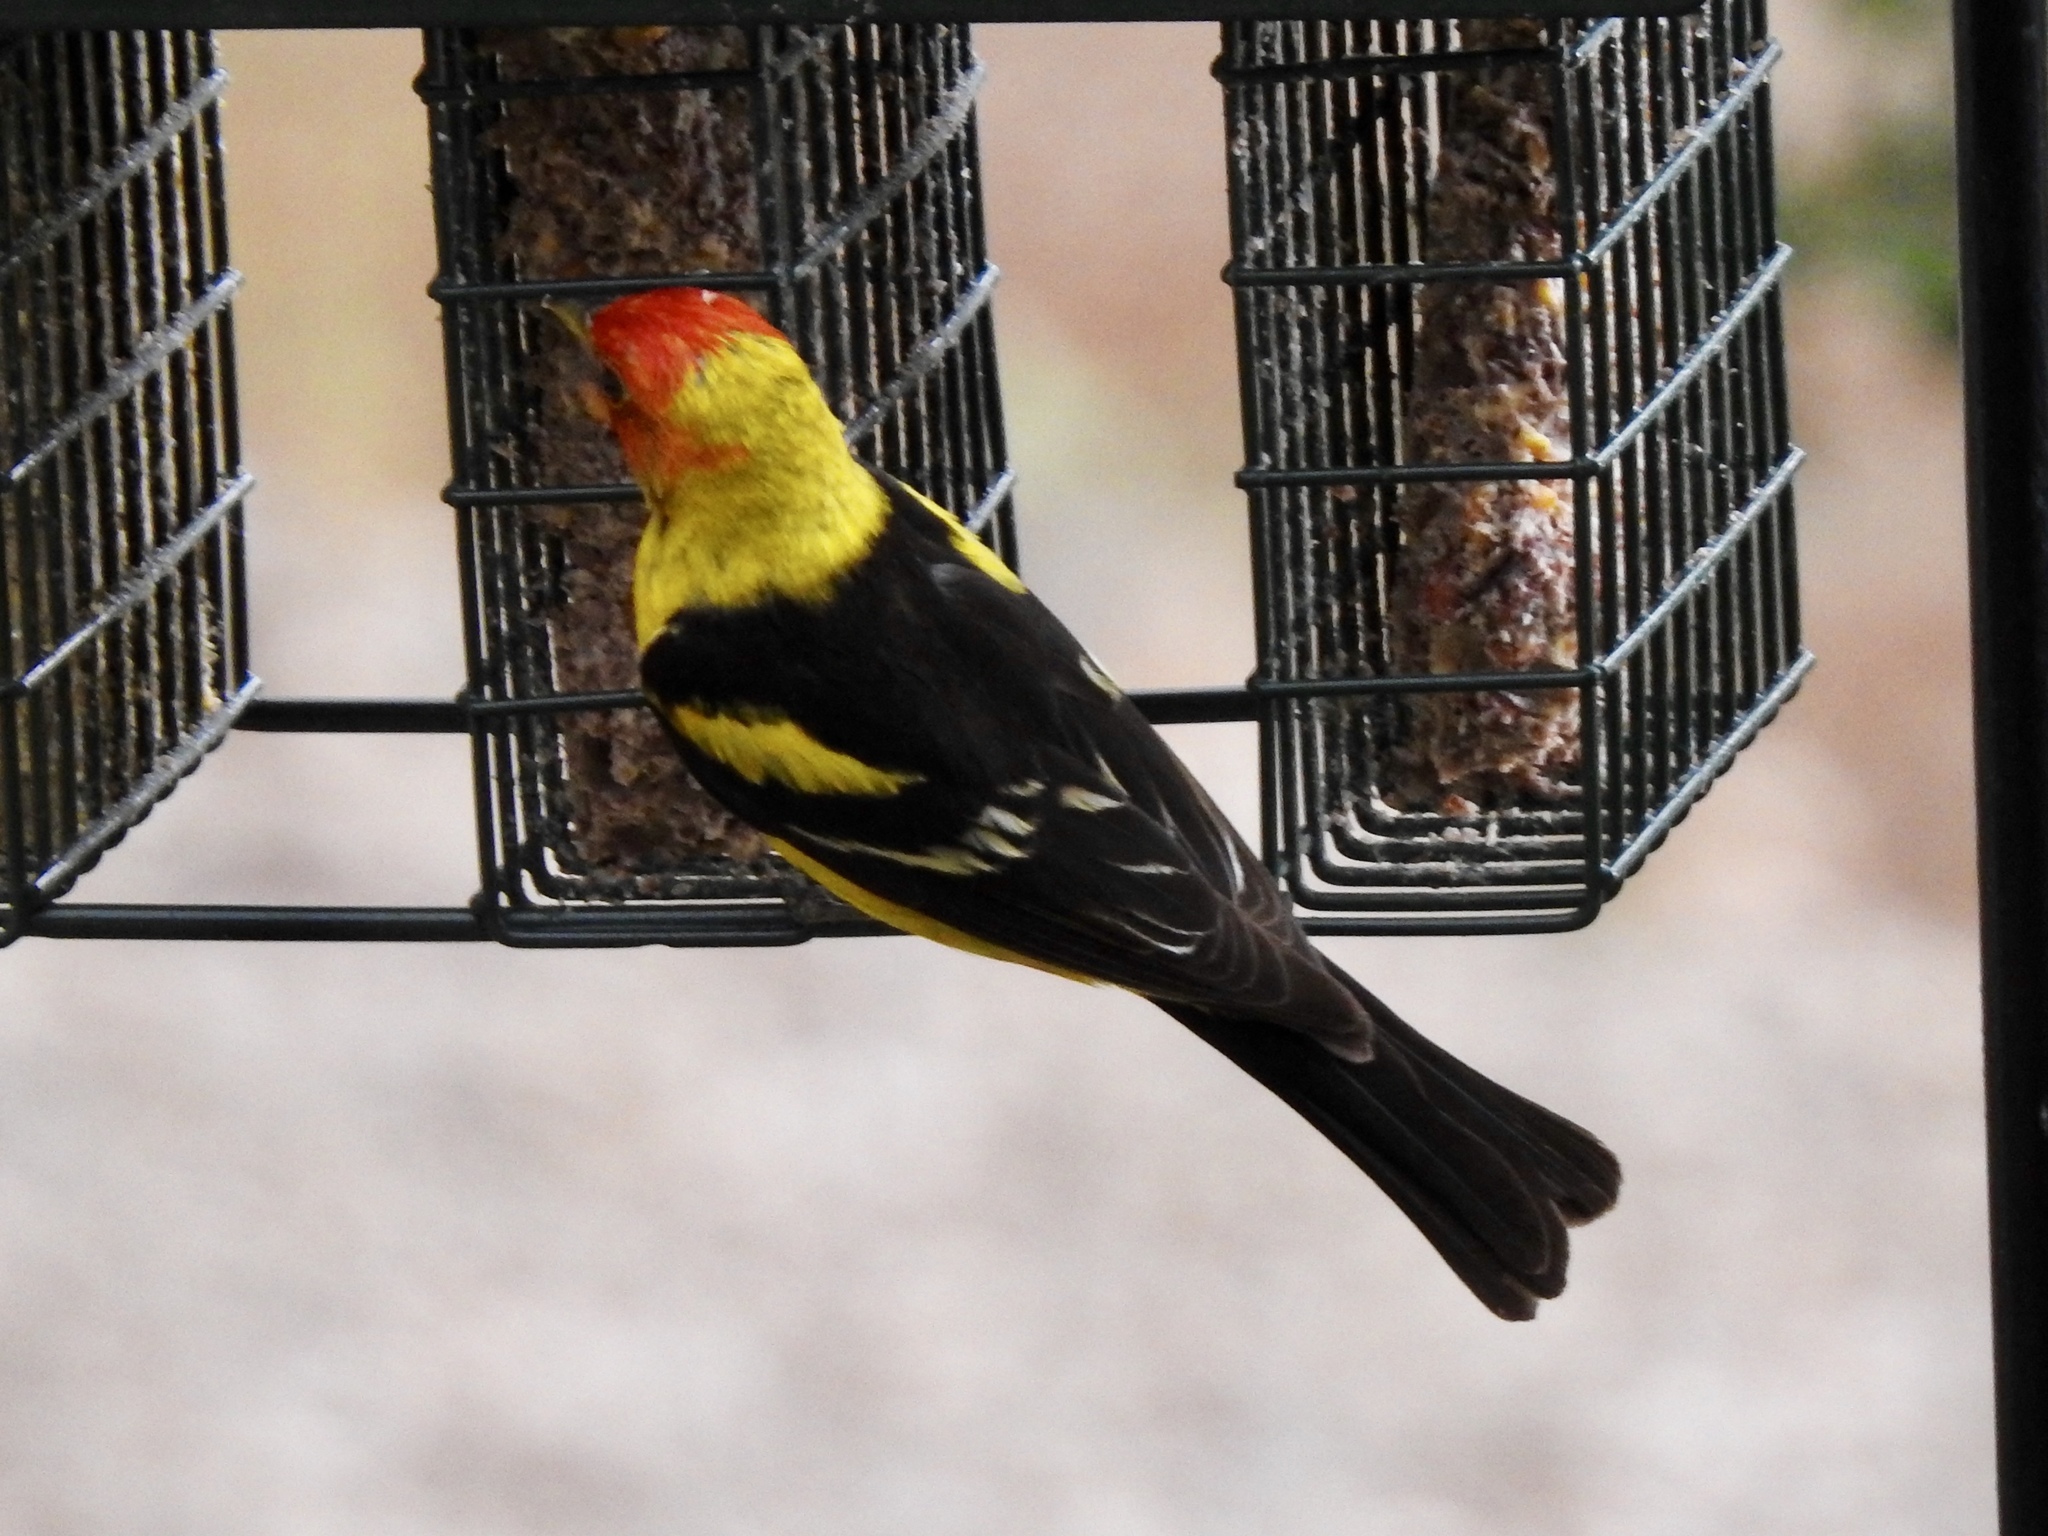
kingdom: Animalia
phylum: Chordata
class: Aves
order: Passeriformes
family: Cardinalidae
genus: Piranga
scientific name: Piranga ludoviciana
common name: Western tanager
